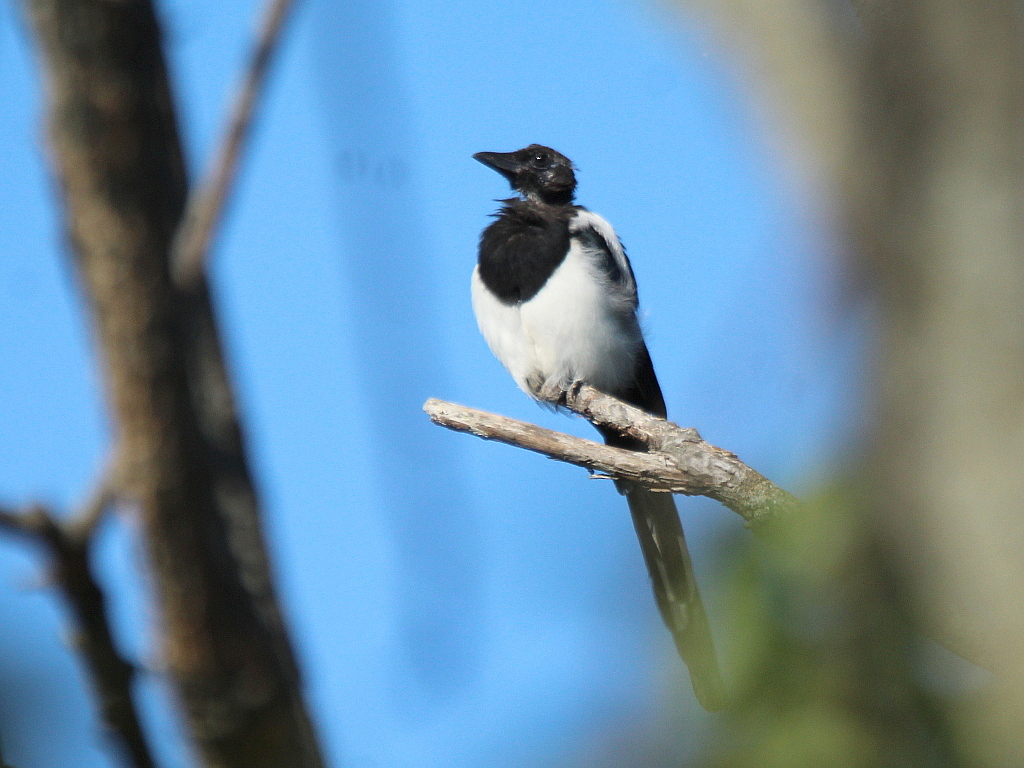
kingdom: Animalia
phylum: Chordata
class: Aves
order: Passeriformes
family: Corvidae
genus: Pica
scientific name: Pica serica
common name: Oriental magpie
